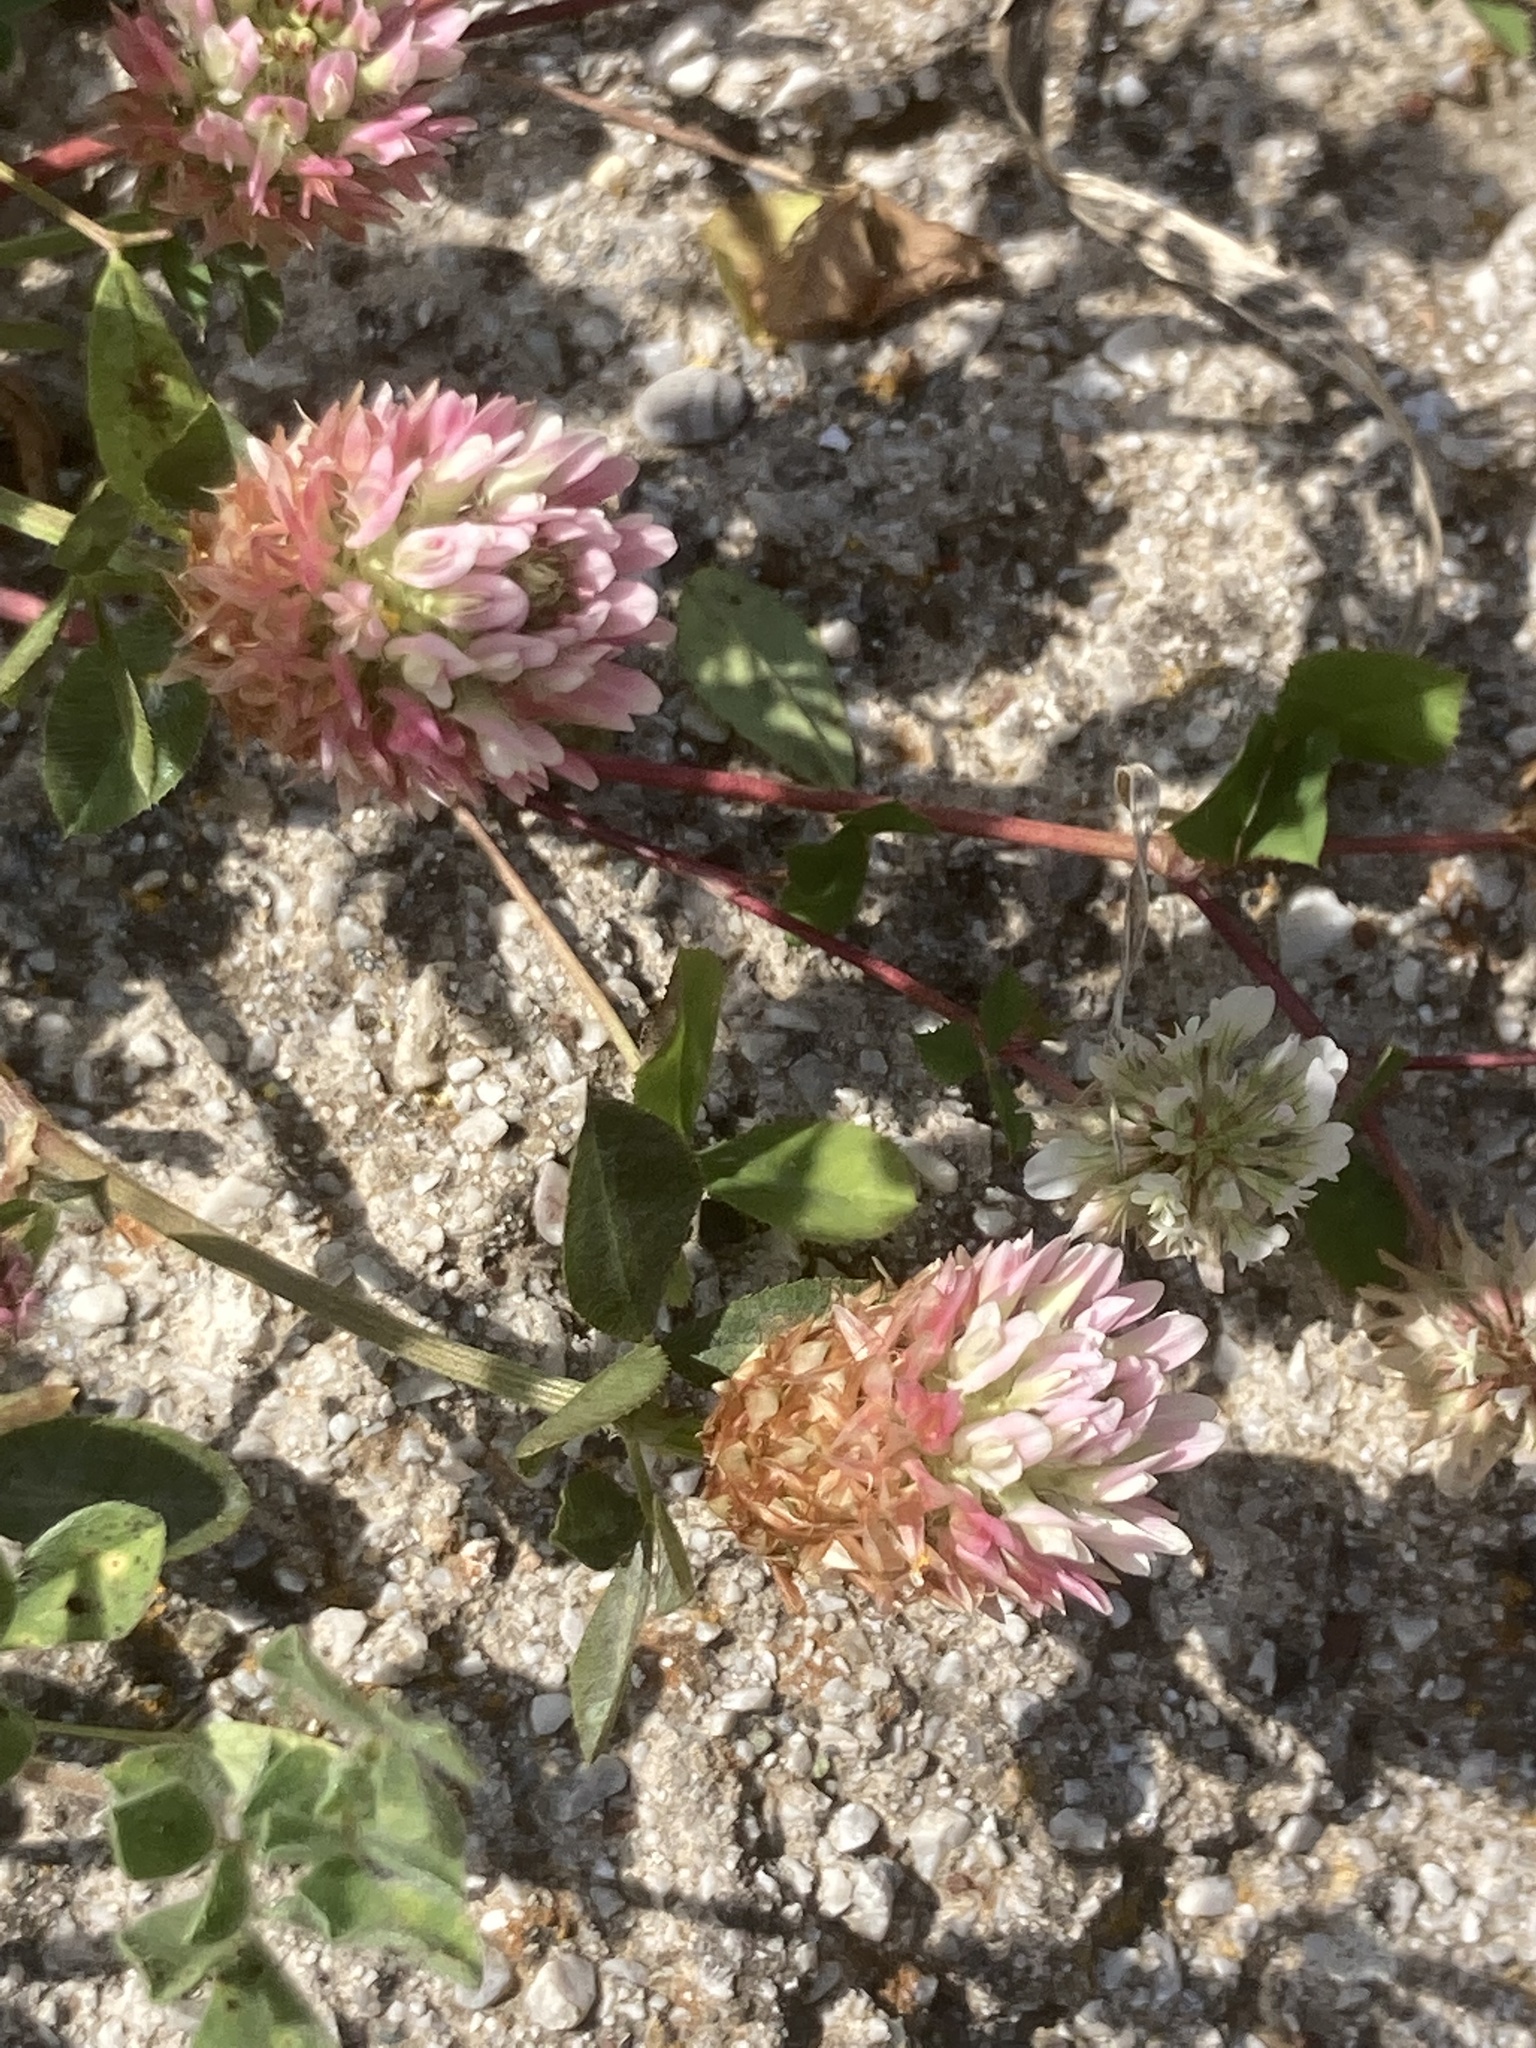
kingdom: Plantae
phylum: Tracheophyta
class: Magnoliopsida
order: Fabales
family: Fabaceae
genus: Trifolium
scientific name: Trifolium argutum
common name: Sharp-tooth clover
